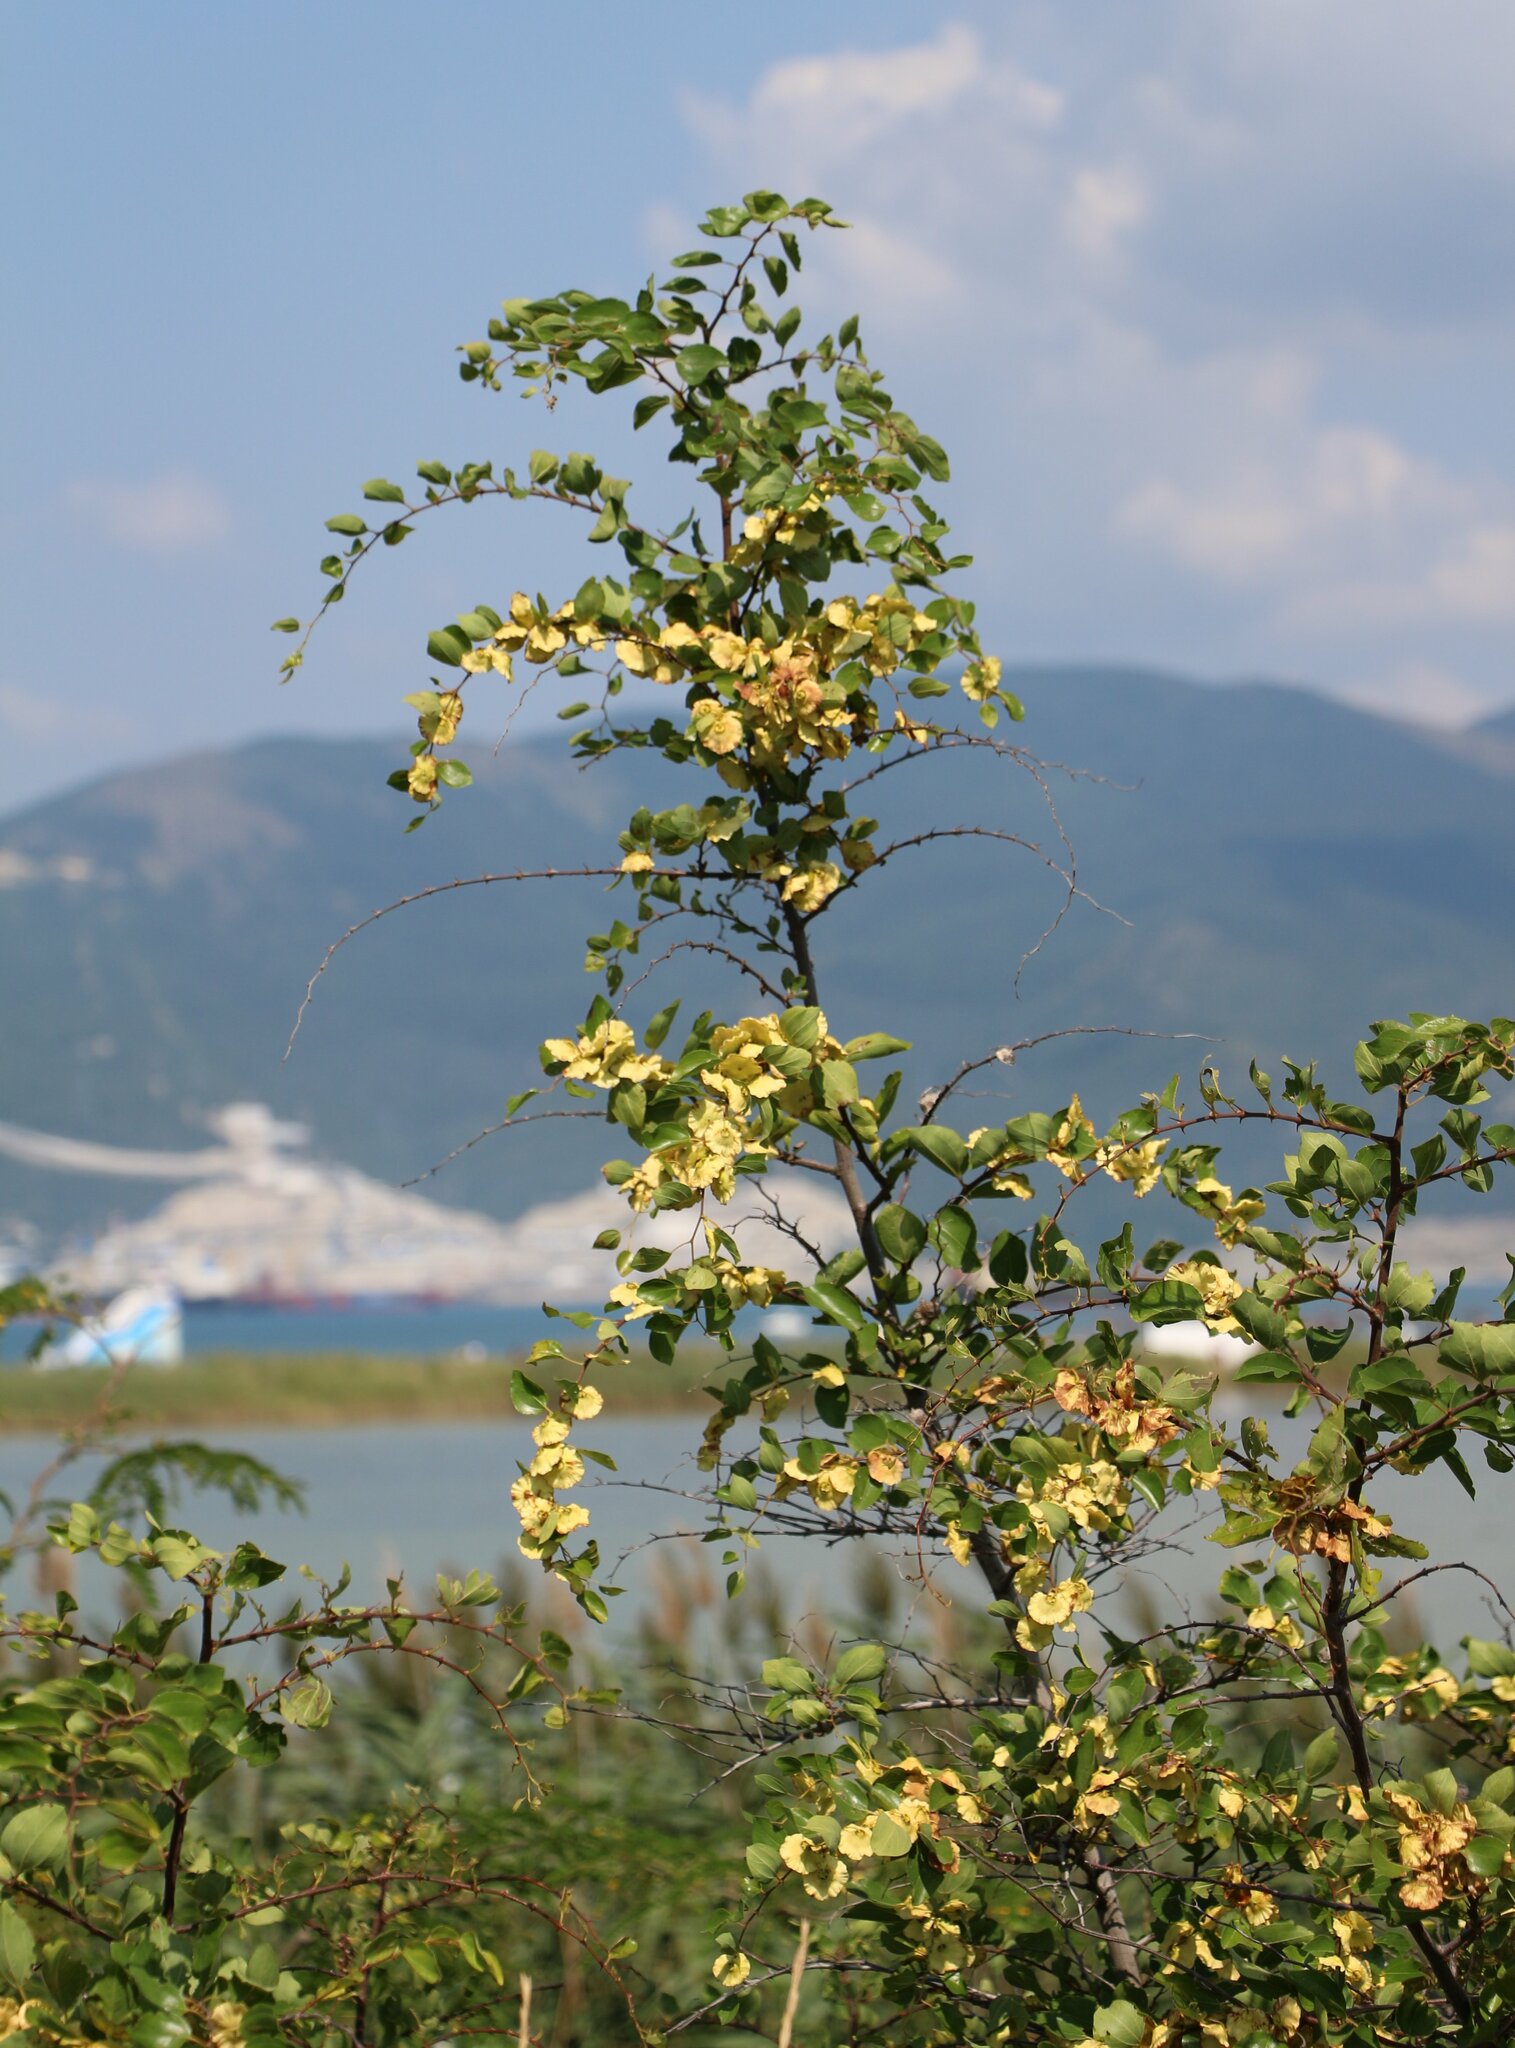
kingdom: Plantae
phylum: Tracheophyta
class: Magnoliopsida
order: Rosales
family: Rhamnaceae
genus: Paliurus
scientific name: Paliurus spina-christi
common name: Jeruselem thorn
